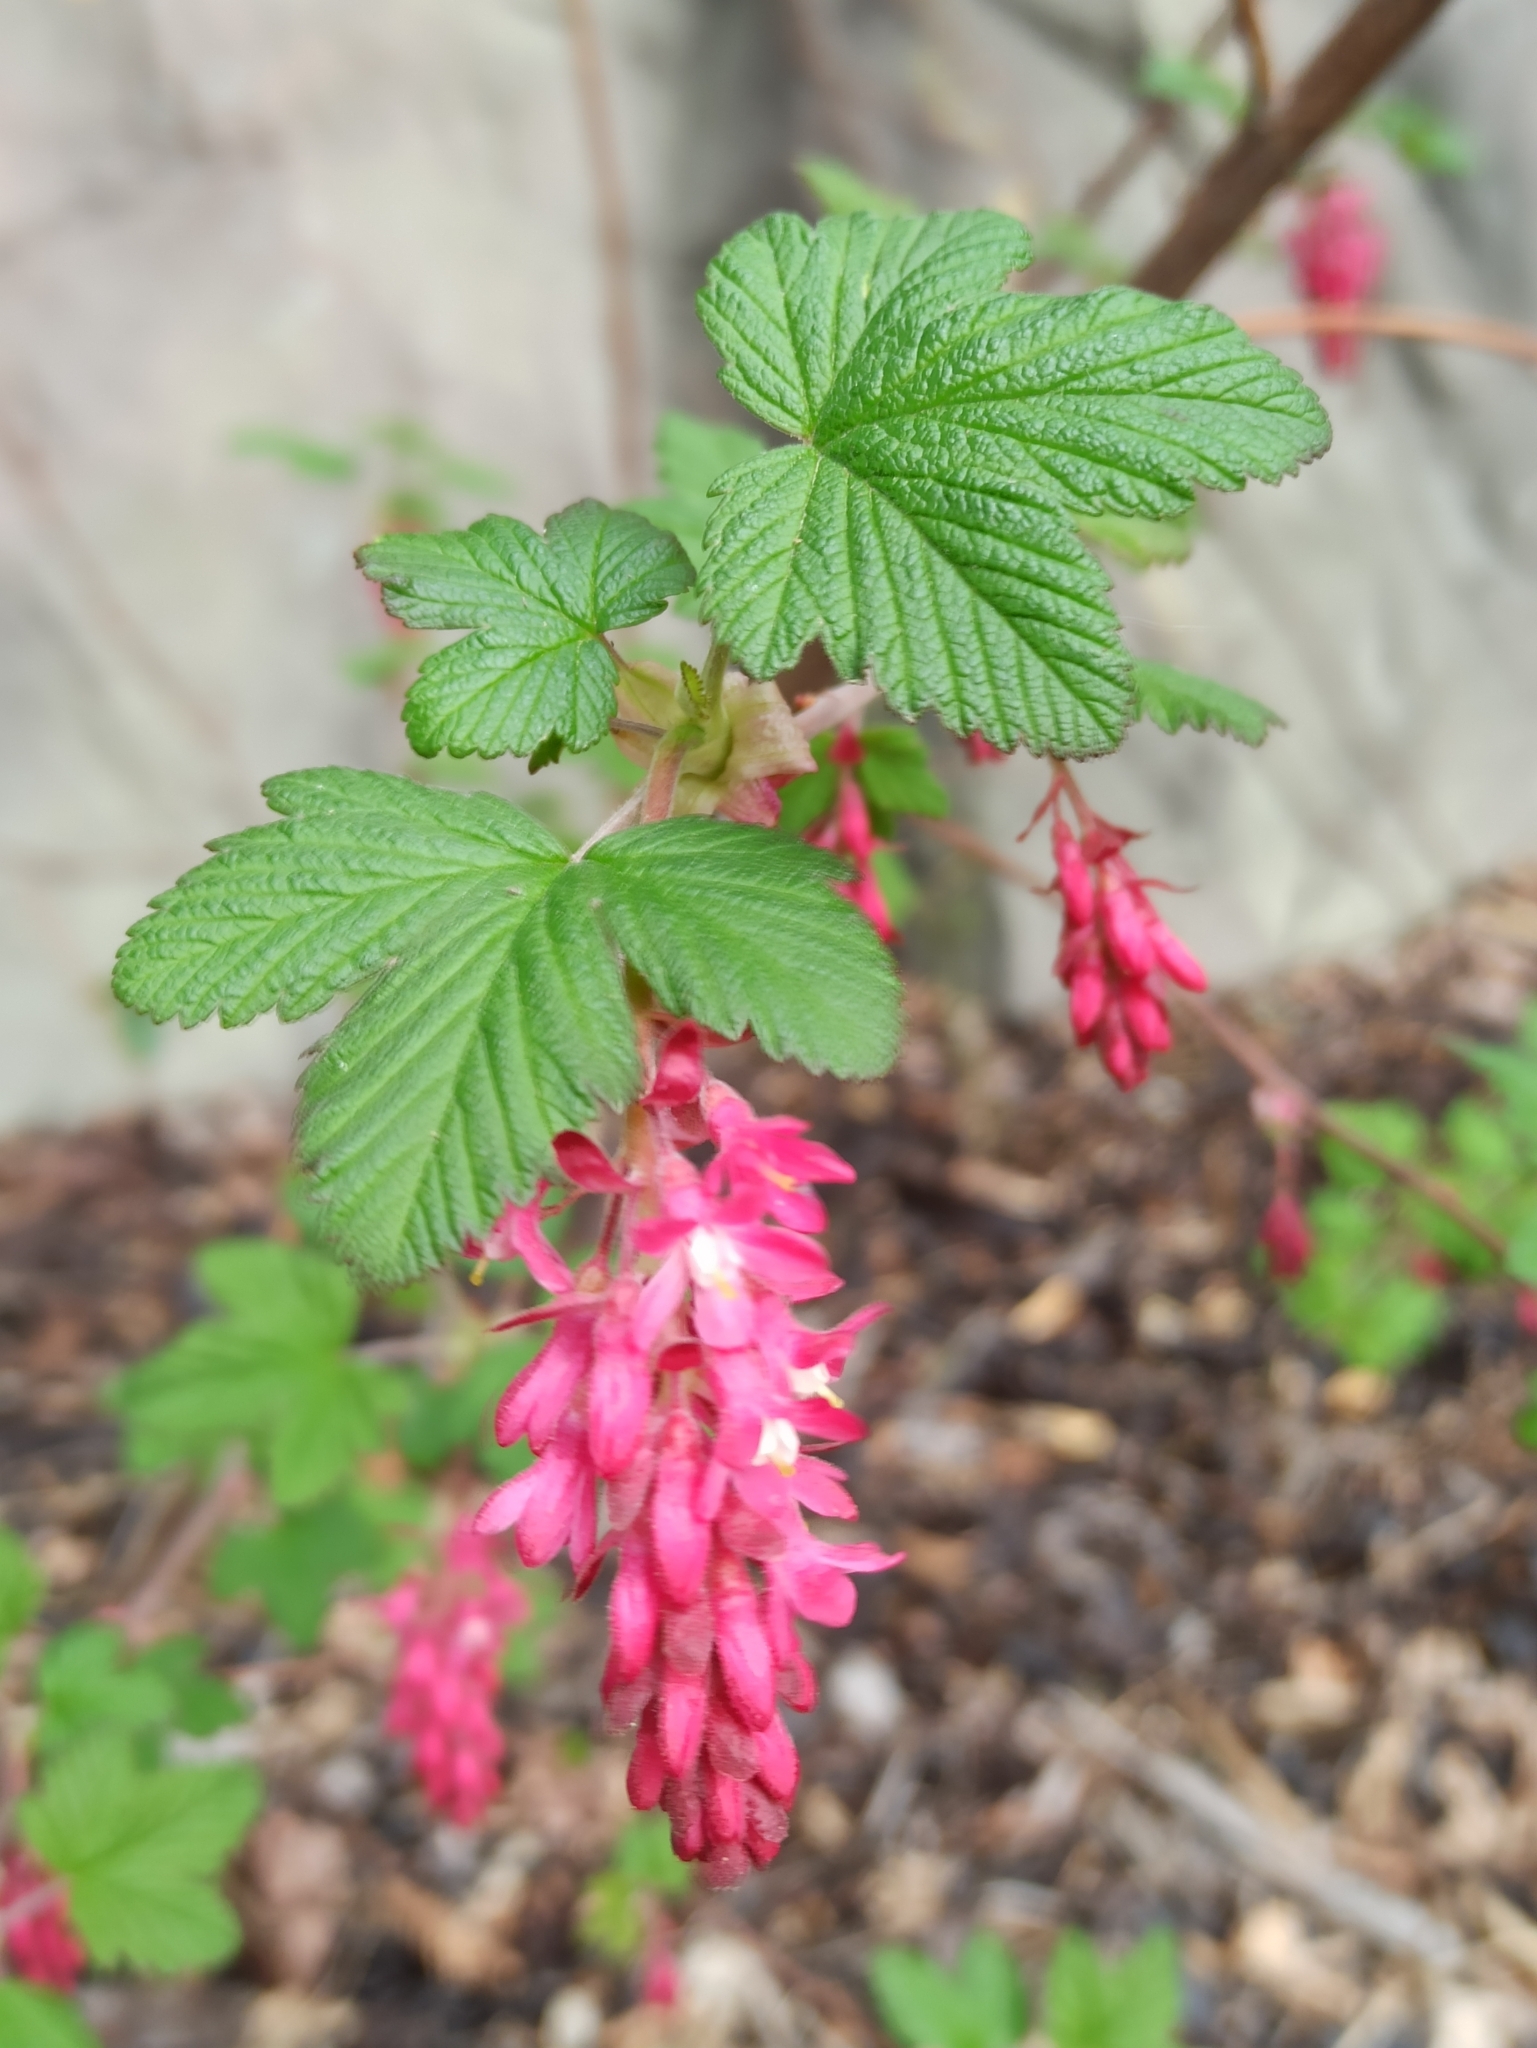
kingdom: Plantae
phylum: Tracheophyta
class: Magnoliopsida
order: Saxifragales
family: Grossulariaceae
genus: Ribes
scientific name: Ribes sanguineum
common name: Flowering currant
